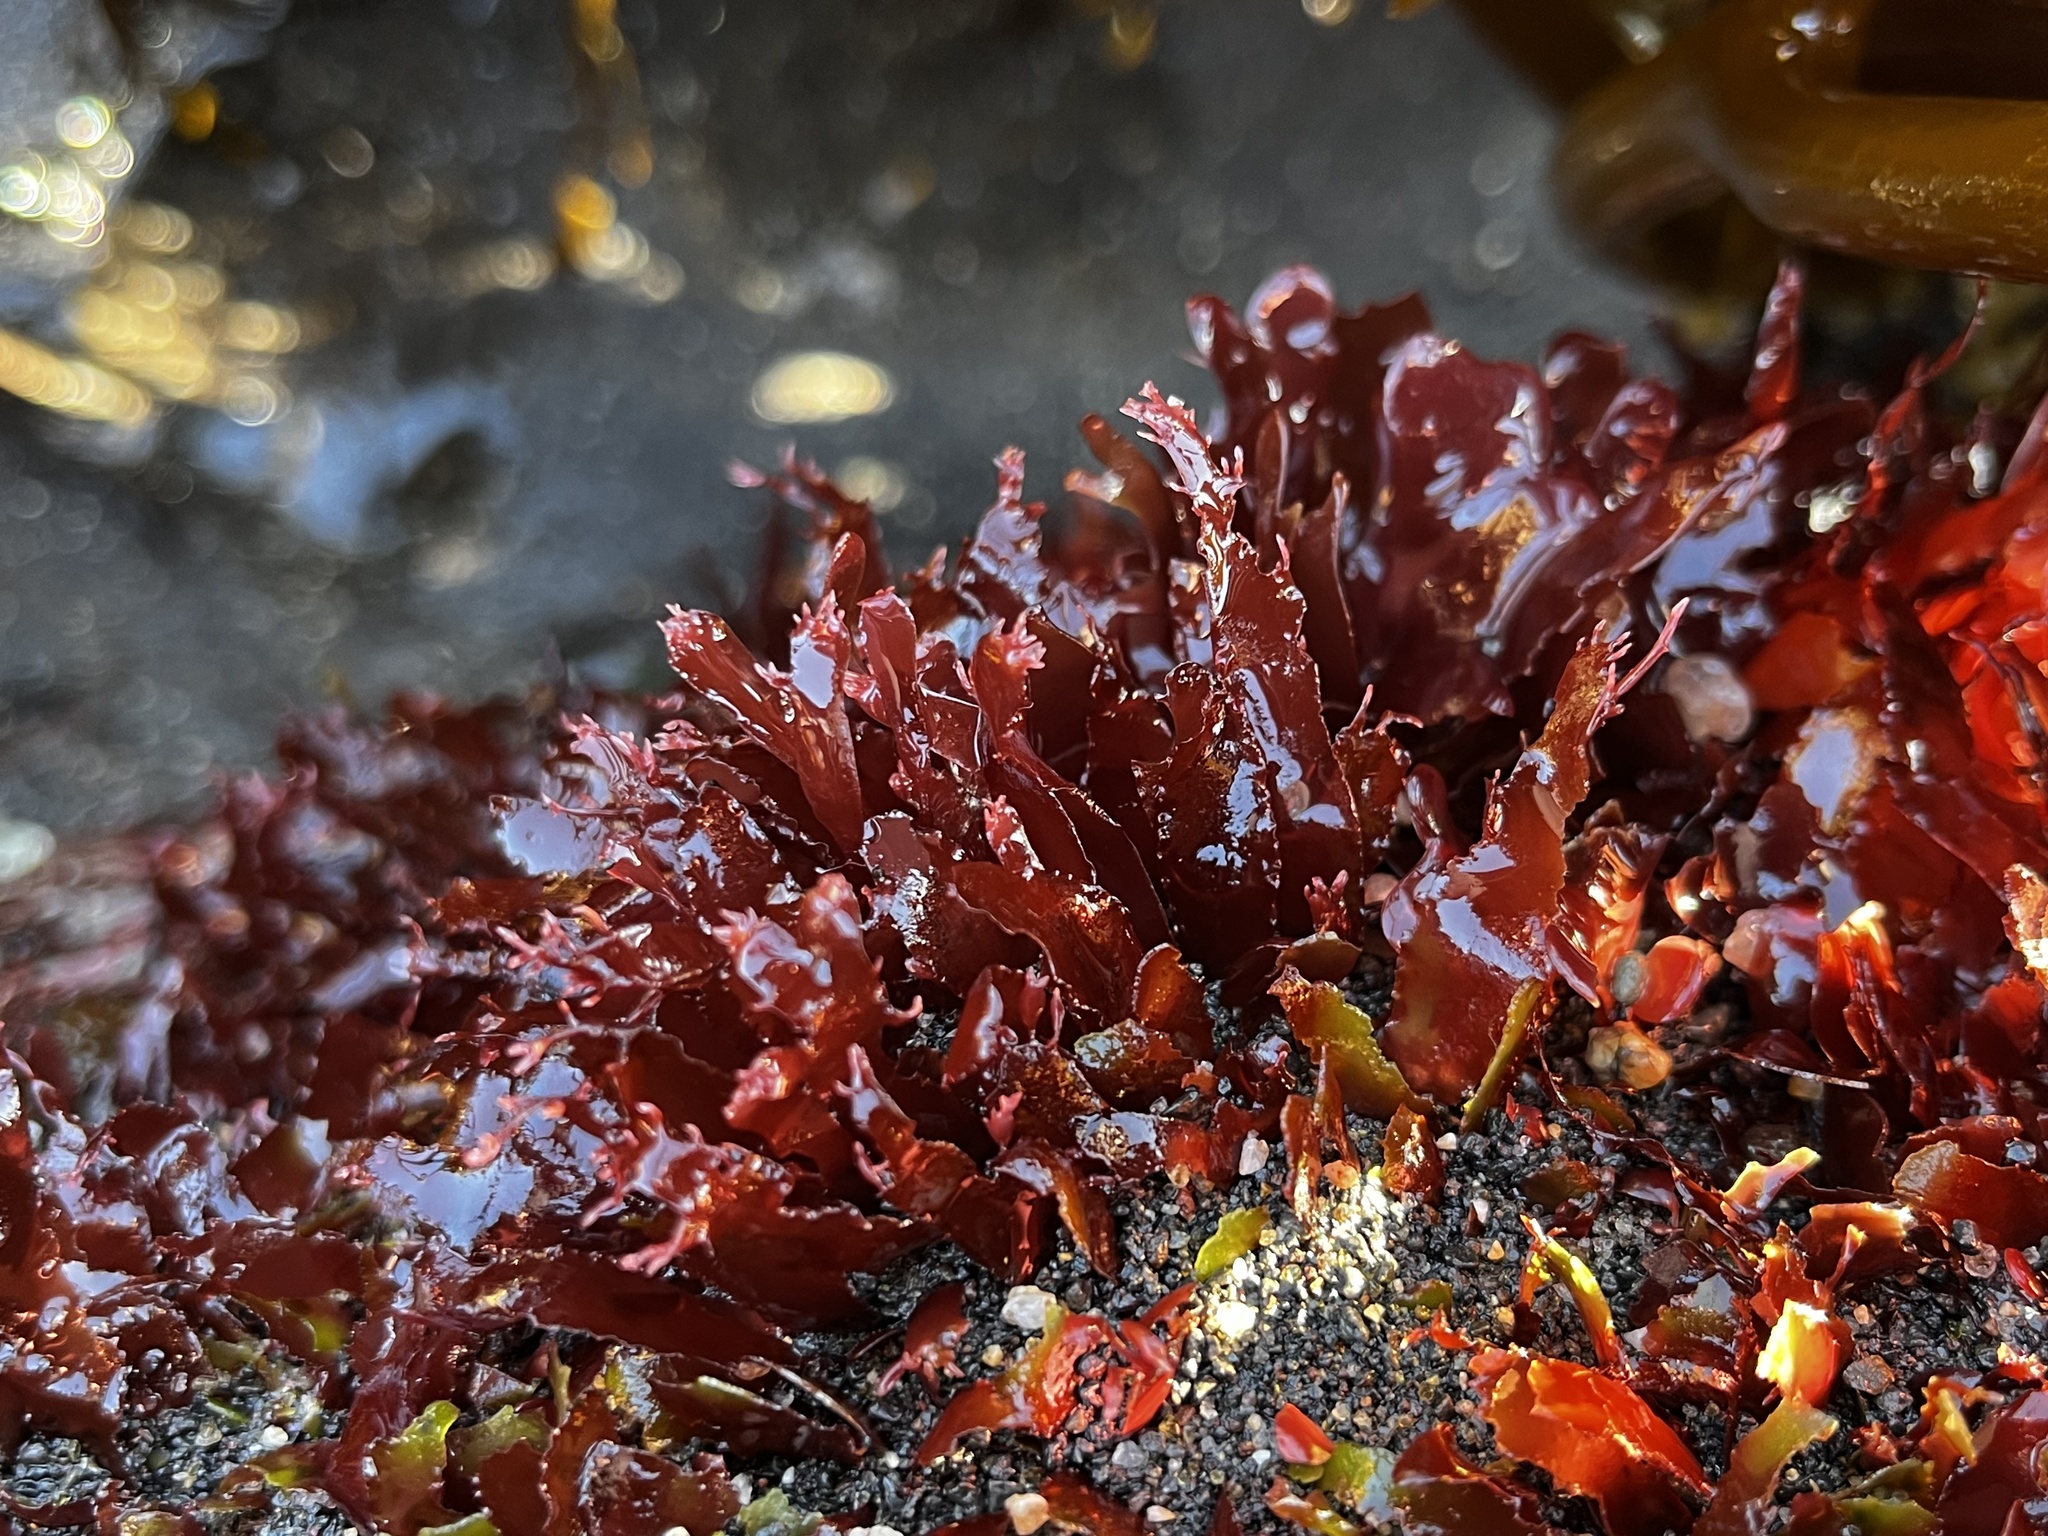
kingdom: Plantae
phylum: Rhodophyta
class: Florideophyceae
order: Gigartinales
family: Phyllophoraceae
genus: Schottera
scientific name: Schottera nicaeensis
